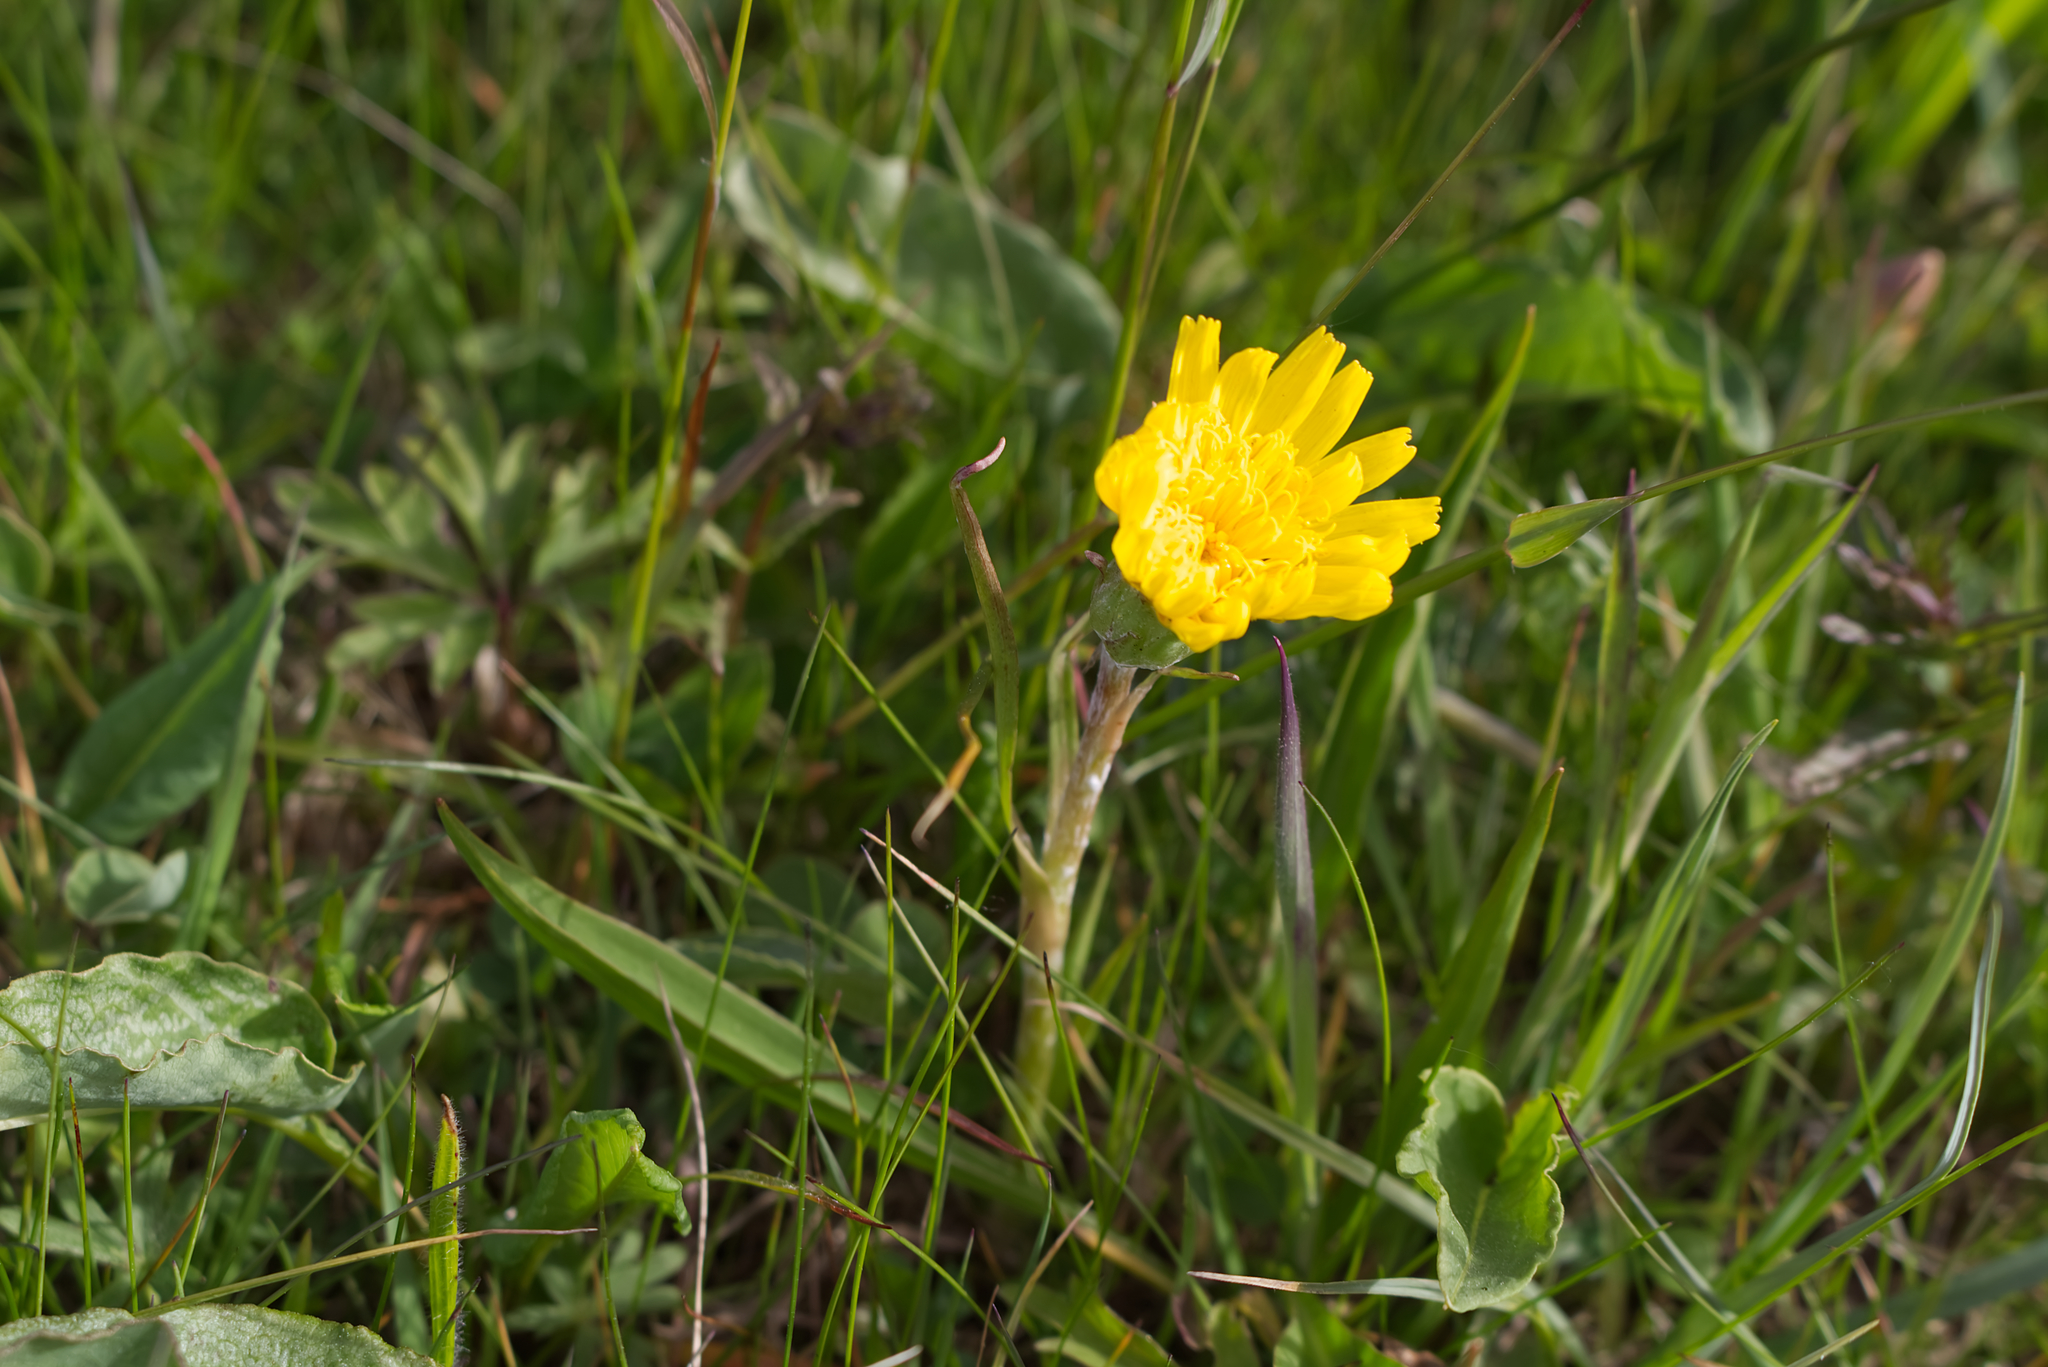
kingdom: Plantae
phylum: Tracheophyta
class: Magnoliopsida
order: Asterales
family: Asteraceae
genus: Scorzonera
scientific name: Scorzonera humilis
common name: Viper's-grass
